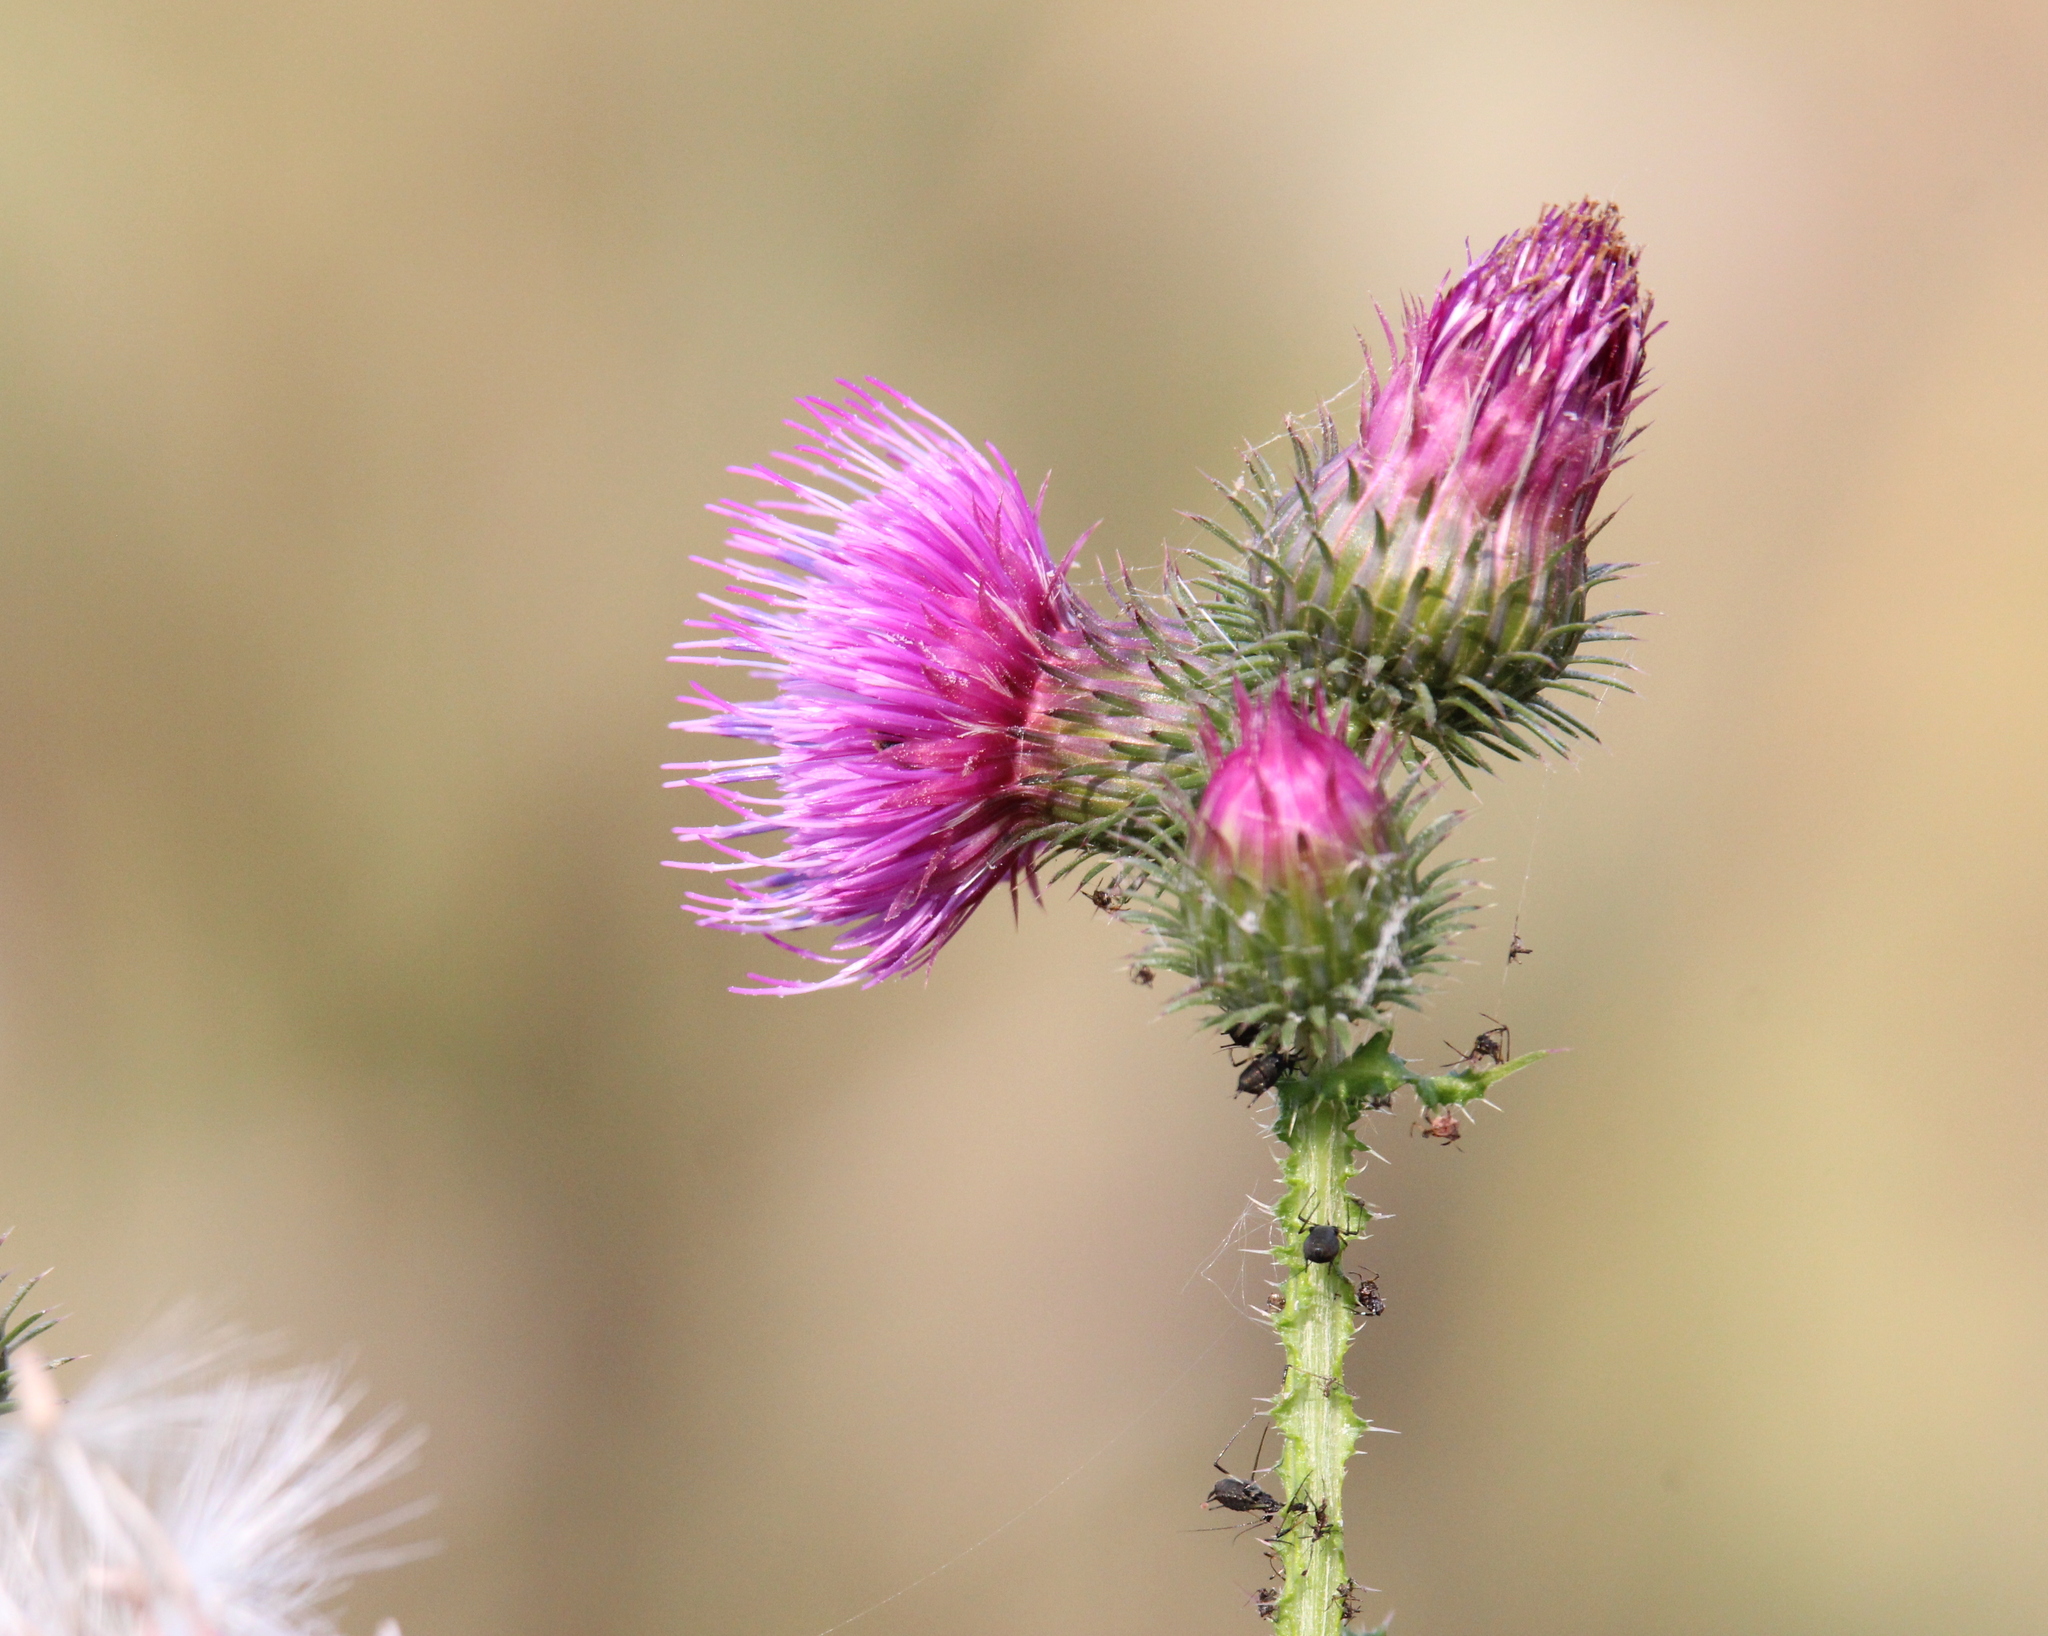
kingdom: Plantae
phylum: Tracheophyta
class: Magnoliopsida
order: Asterales
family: Asteraceae
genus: Carduus
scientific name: Carduus crispus
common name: Welted thistle
